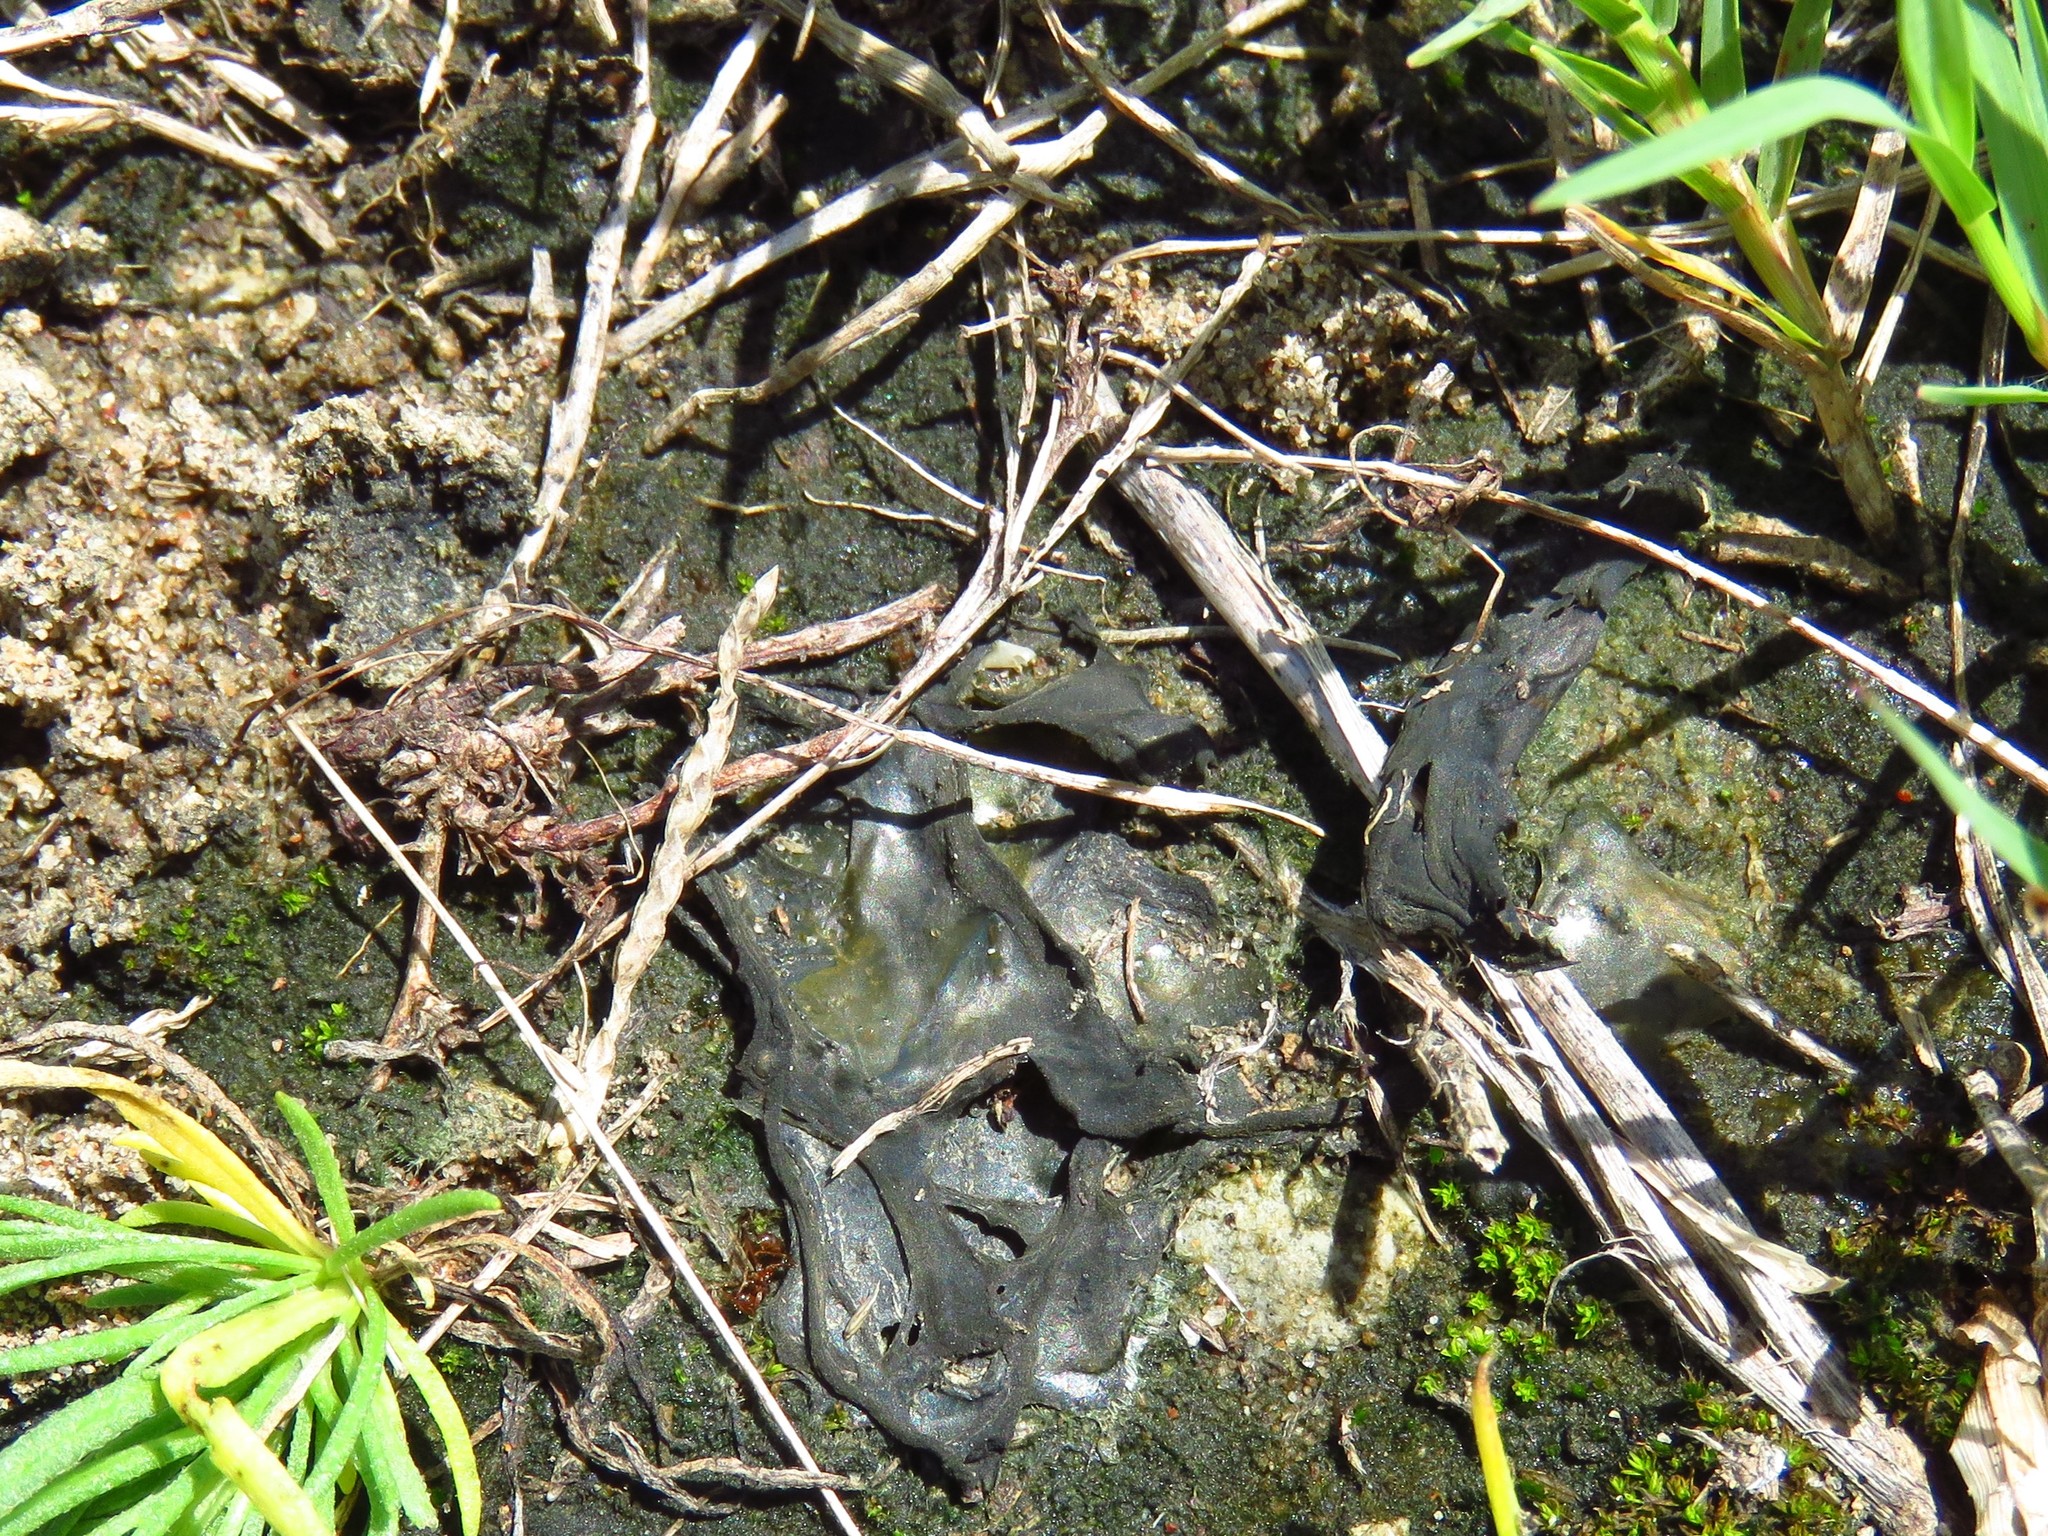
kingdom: Bacteria
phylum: Cyanobacteria
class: Cyanobacteriia
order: Cyanobacteriales
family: Nostocaceae
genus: Nostoc
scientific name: Nostoc commune
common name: Star jelly
